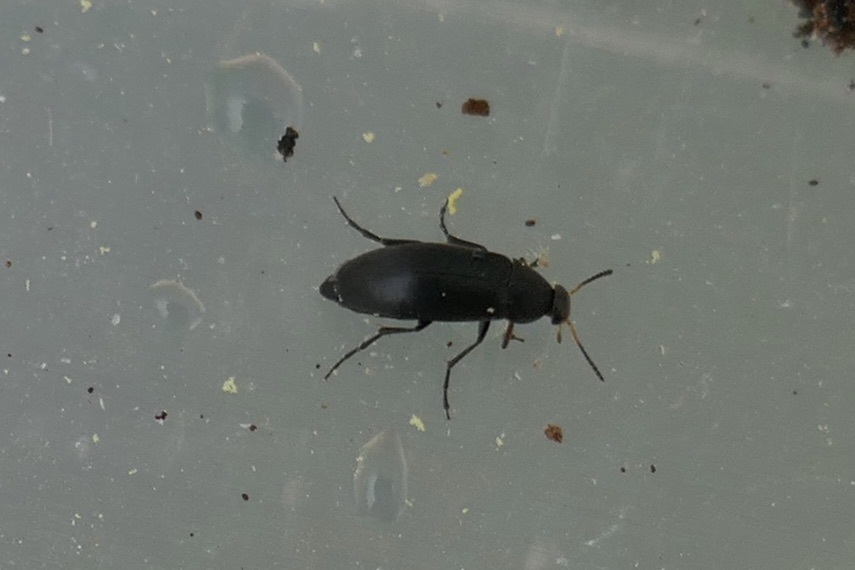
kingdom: Animalia
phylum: Arthropoda
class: Insecta
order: Coleoptera
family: Scraptiidae
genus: Anaspis
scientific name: Anaspis frontalis
